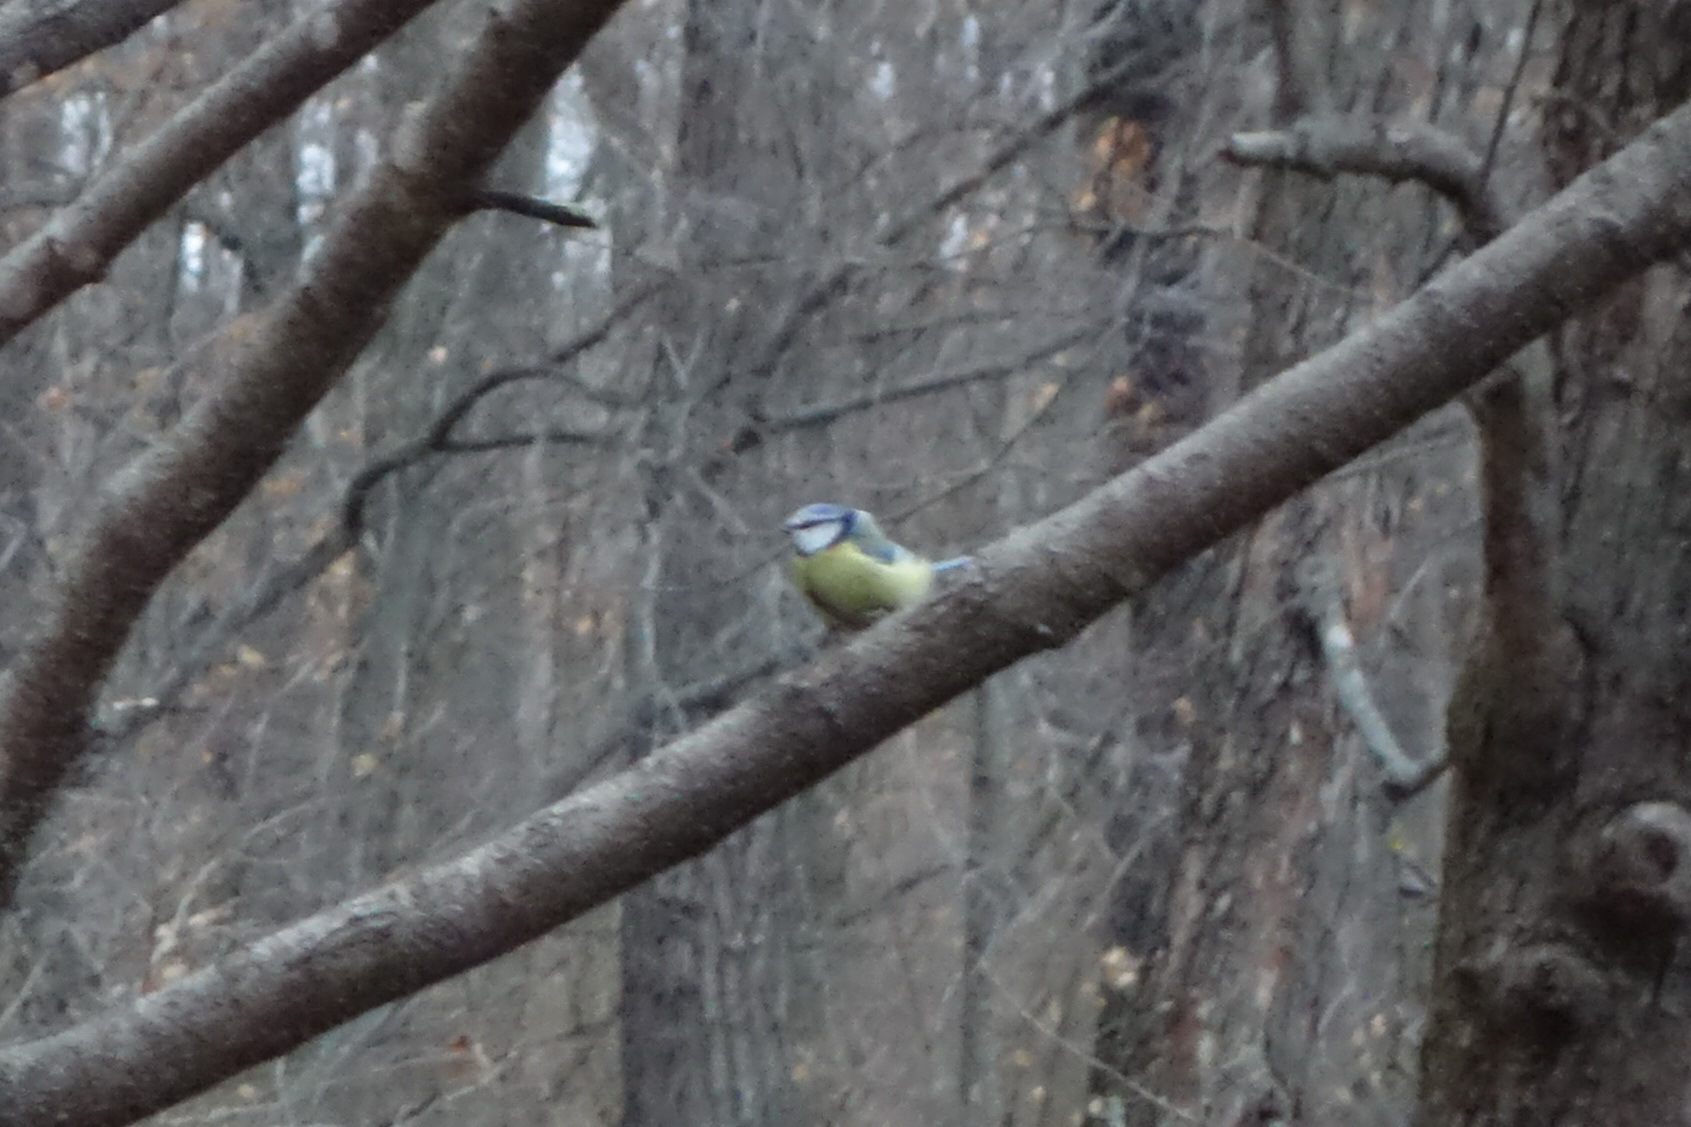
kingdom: Animalia
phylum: Chordata
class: Aves
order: Passeriformes
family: Paridae
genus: Cyanistes
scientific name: Cyanistes caeruleus
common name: Eurasian blue tit
